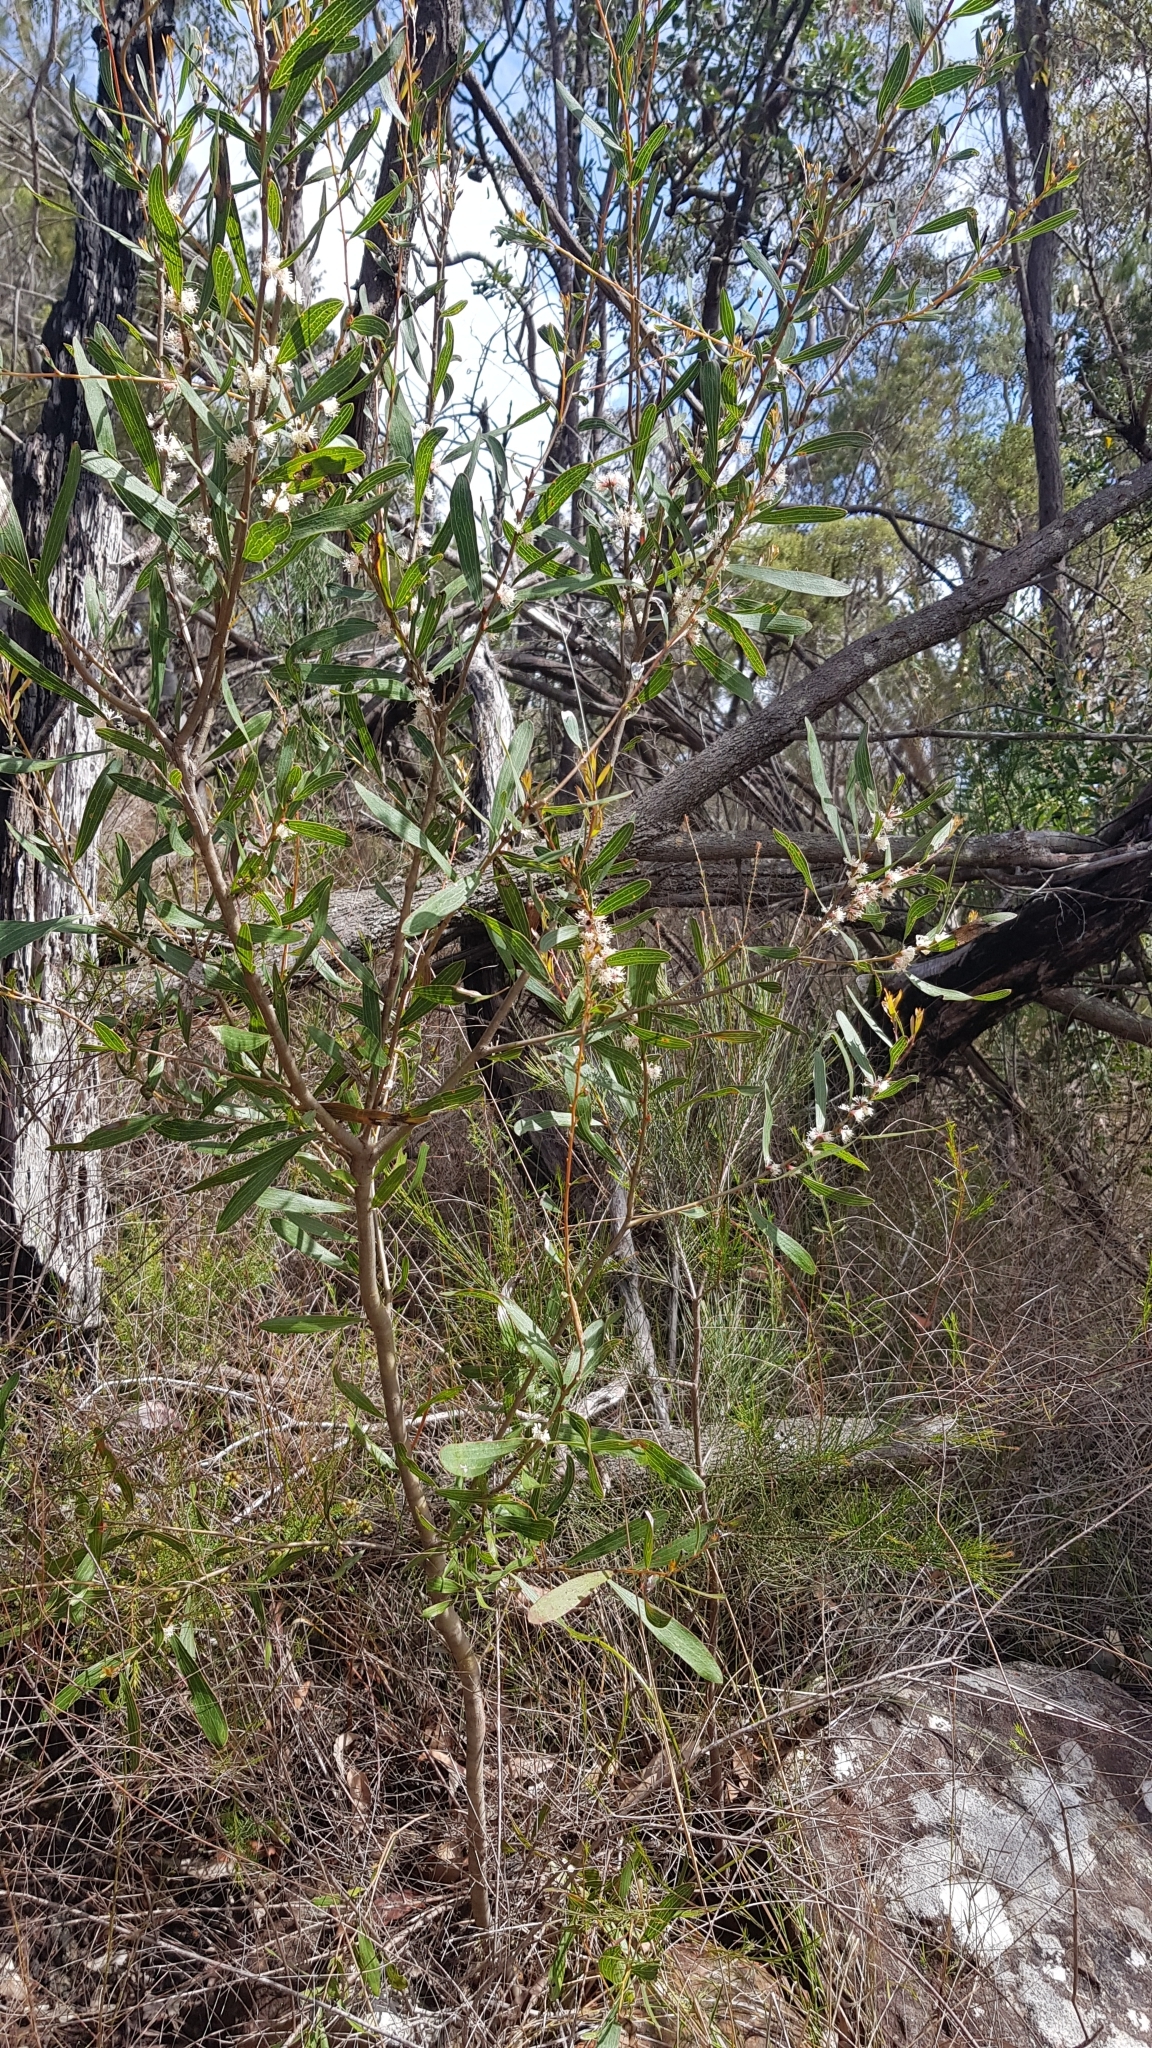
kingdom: Plantae
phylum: Tracheophyta
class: Magnoliopsida
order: Proteales
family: Proteaceae
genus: Hakea
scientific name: Hakea laevipes
